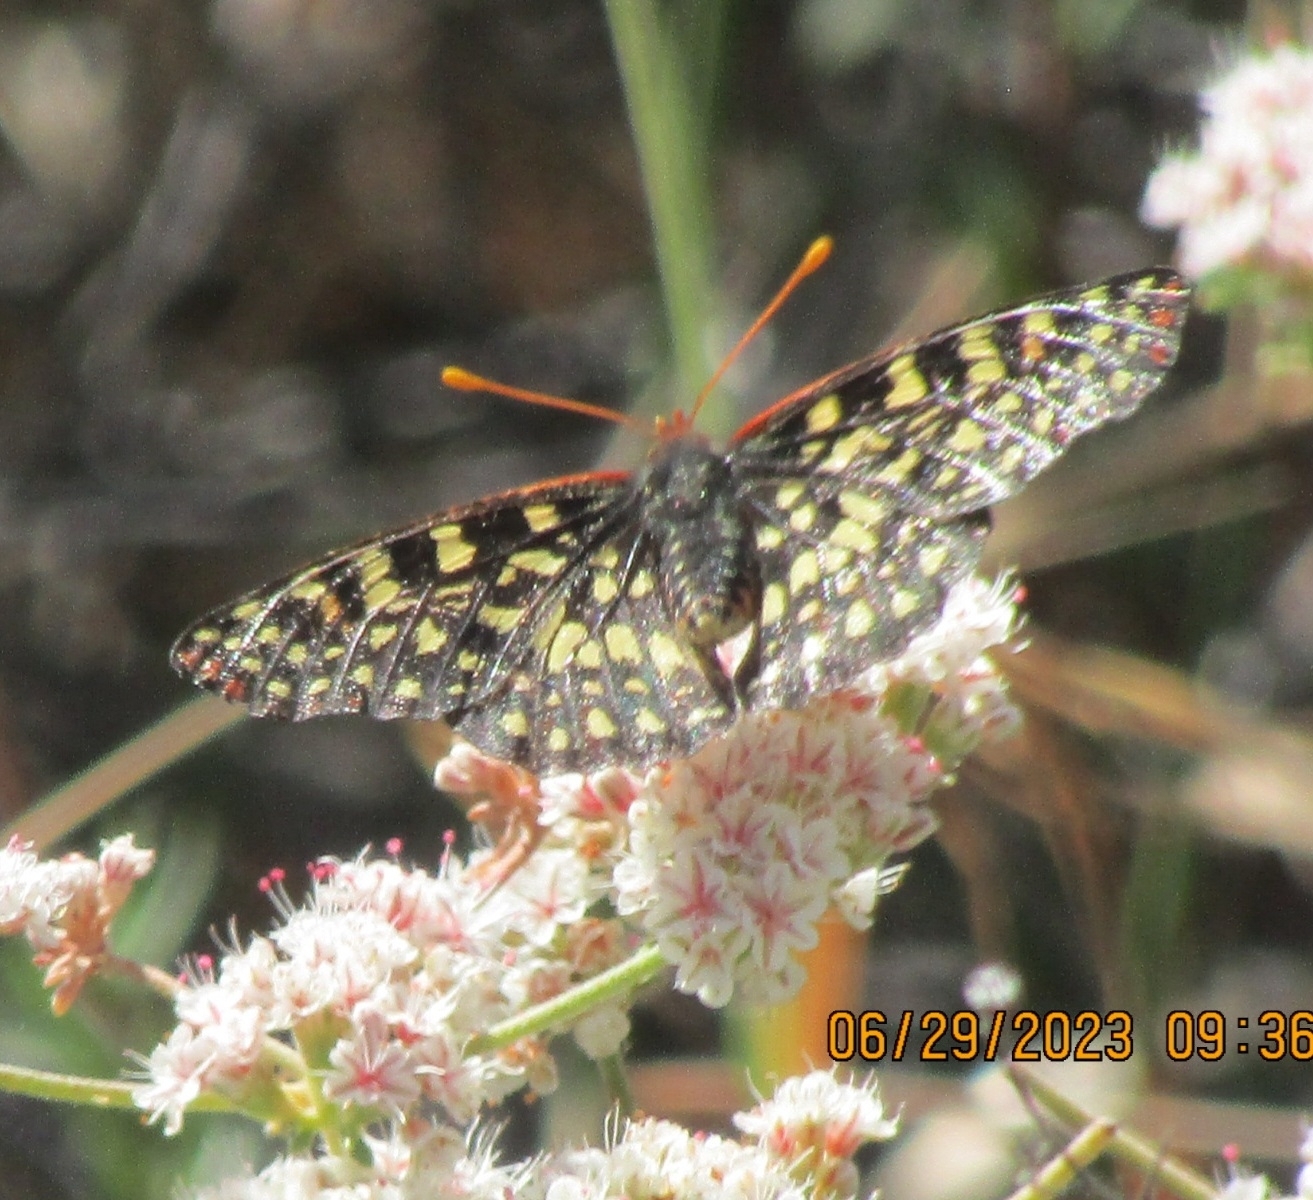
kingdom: Animalia
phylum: Arthropoda
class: Insecta
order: Lepidoptera
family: Nymphalidae
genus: Occidryas
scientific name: Occidryas chalcedona
